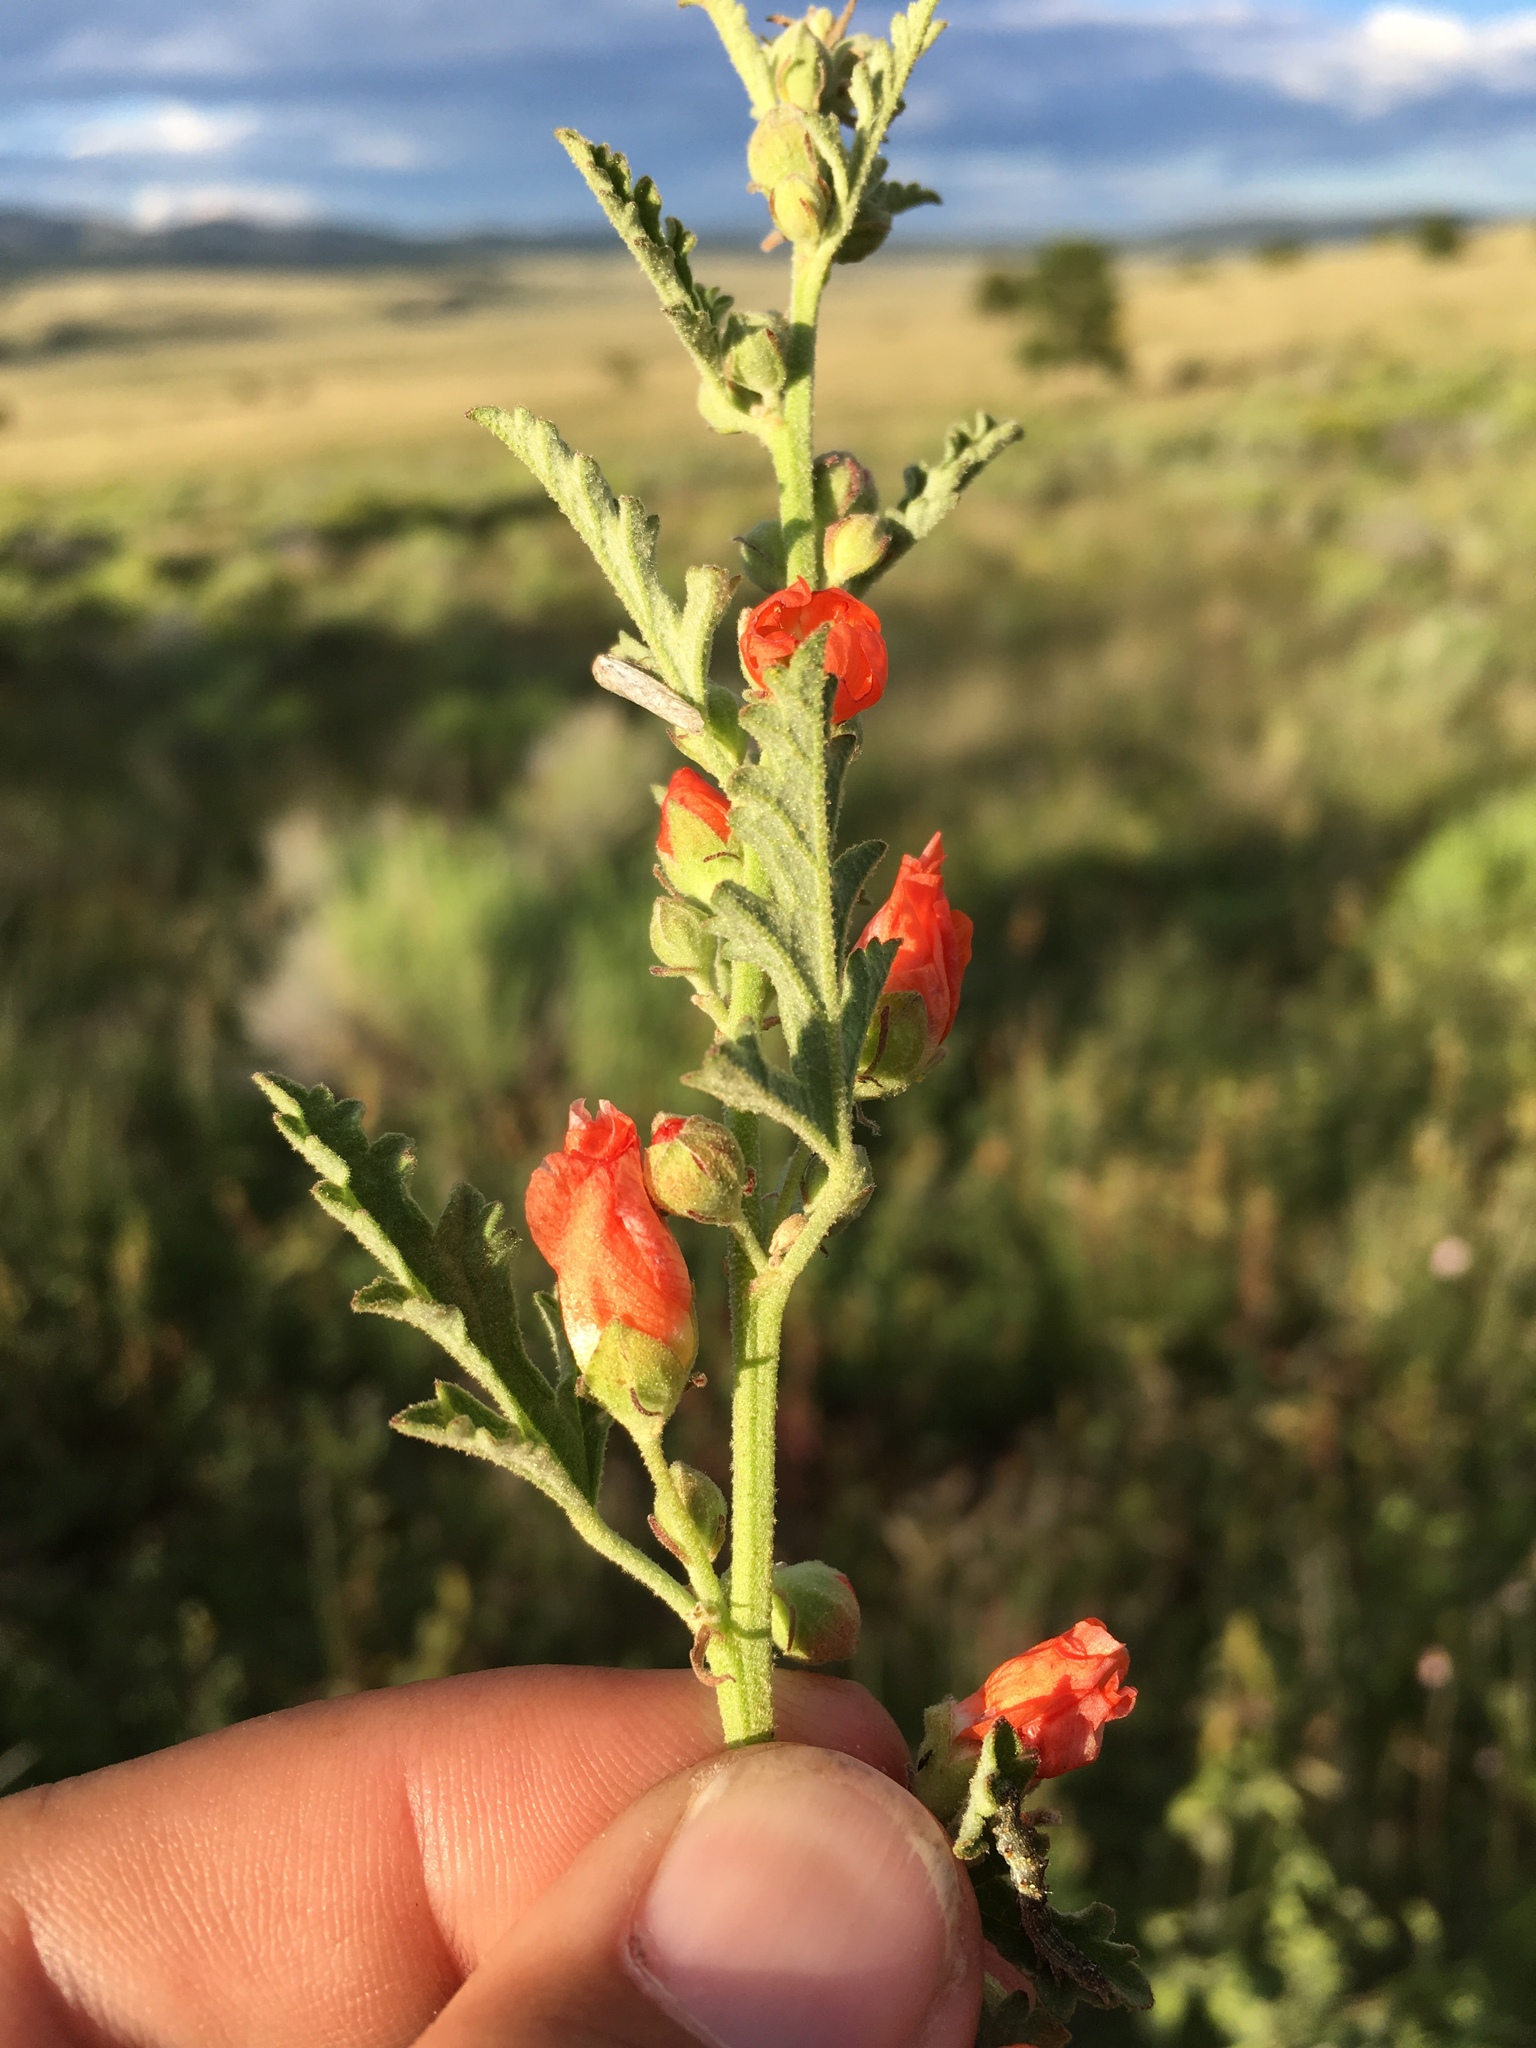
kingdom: Plantae
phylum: Tracheophyta
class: Magnoliopsida
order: Malvales
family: Malvaceae
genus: Sphaeralcea
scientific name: Sphaeralcea fendleri
